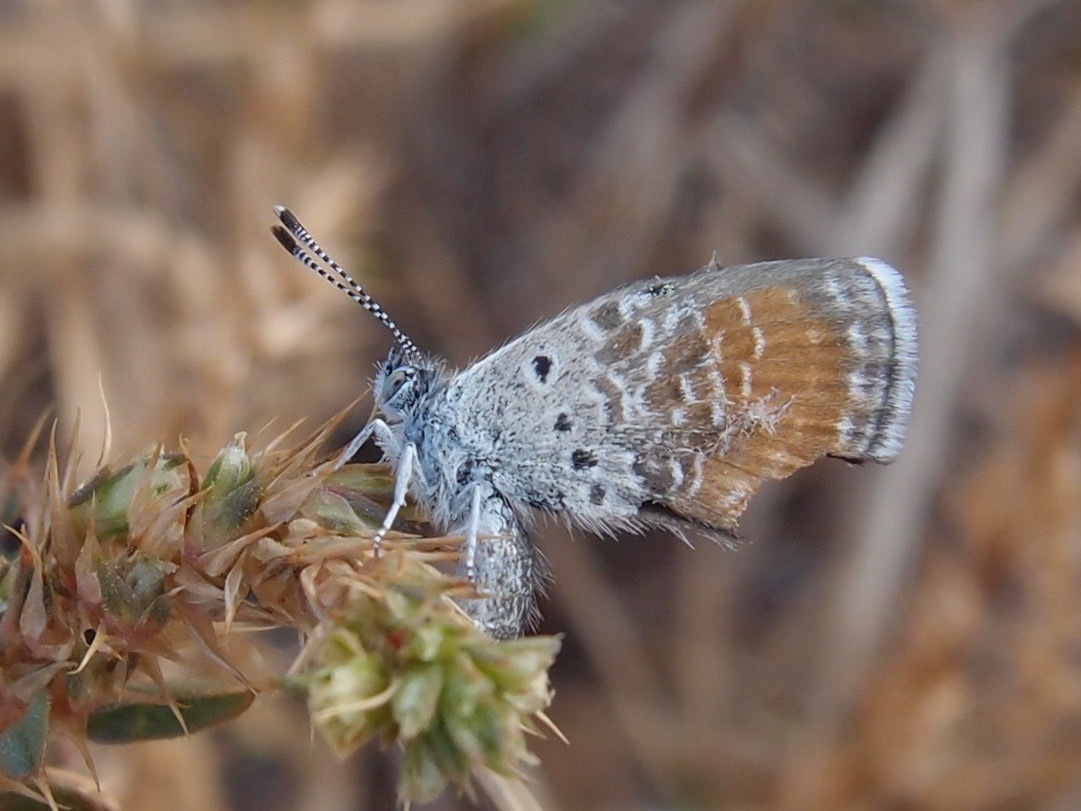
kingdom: Animalia
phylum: Arthropoda
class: Insecta
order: Lepidoptera
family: Lycaenidae
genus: Brephidium
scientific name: Brephidium exilis
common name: Pygmy blue
